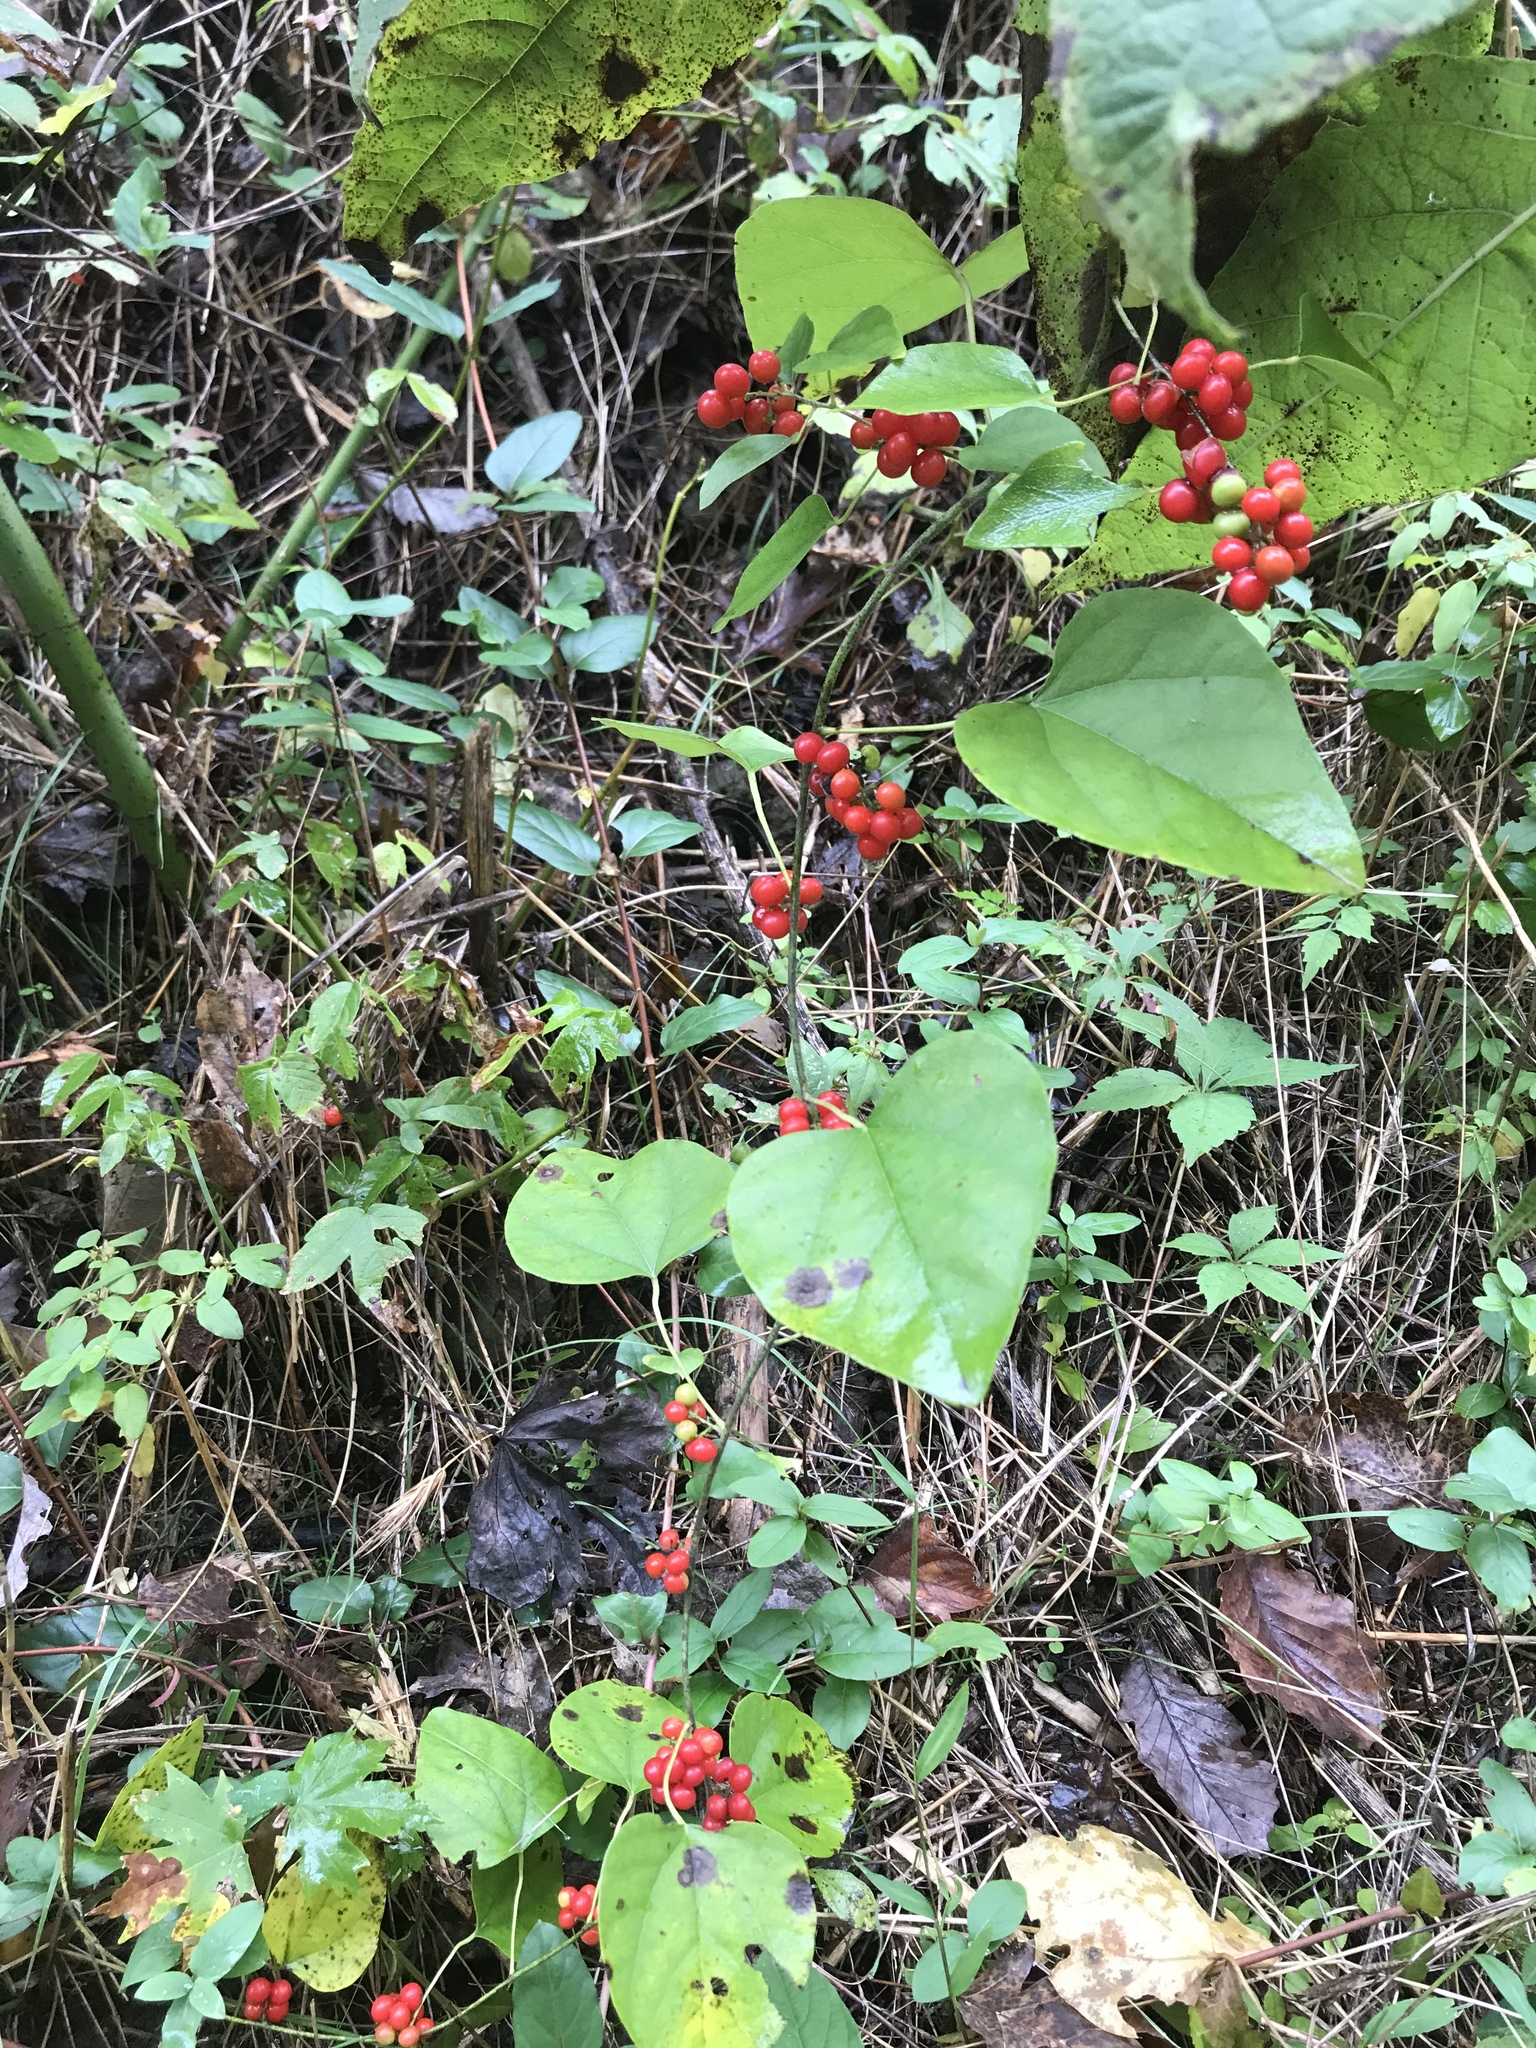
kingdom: Plantae
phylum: Tracheophyta
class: Magnoliopsida
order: Ranunculales
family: Menispermaceae
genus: Cocculus
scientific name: Cocculus carolinus
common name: Carolina moonseed
